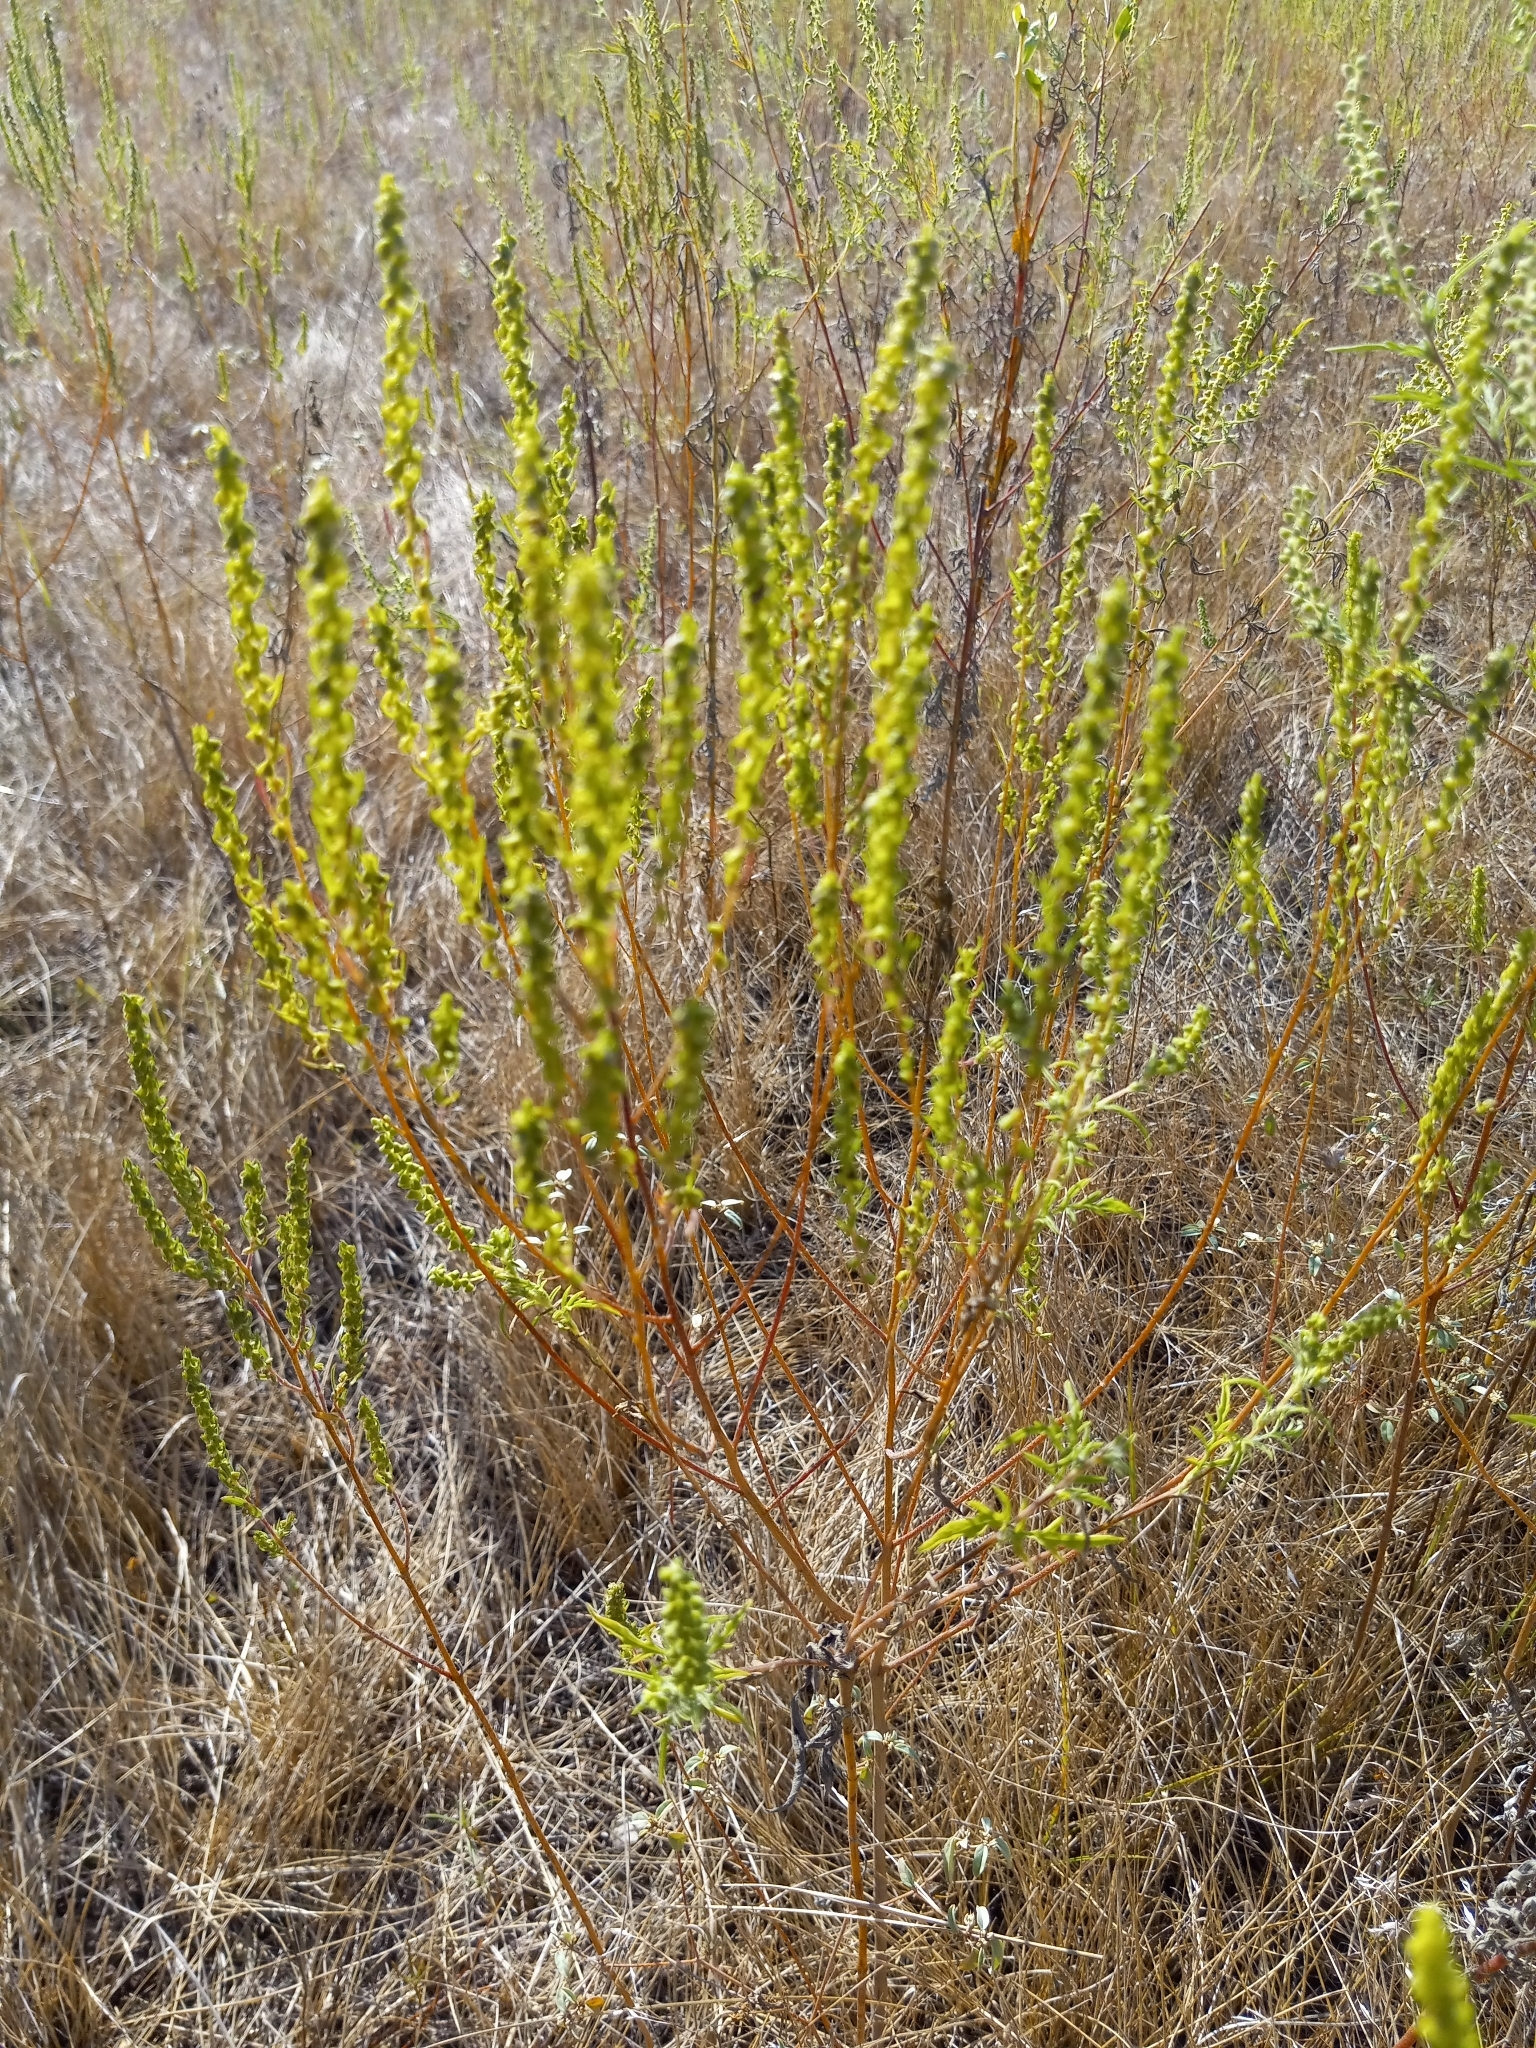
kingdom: Plantae
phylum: Tracheophyta
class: Magnoliopsida
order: Asterales
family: Asteraceae
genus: Iva
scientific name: Iva asperifolia
